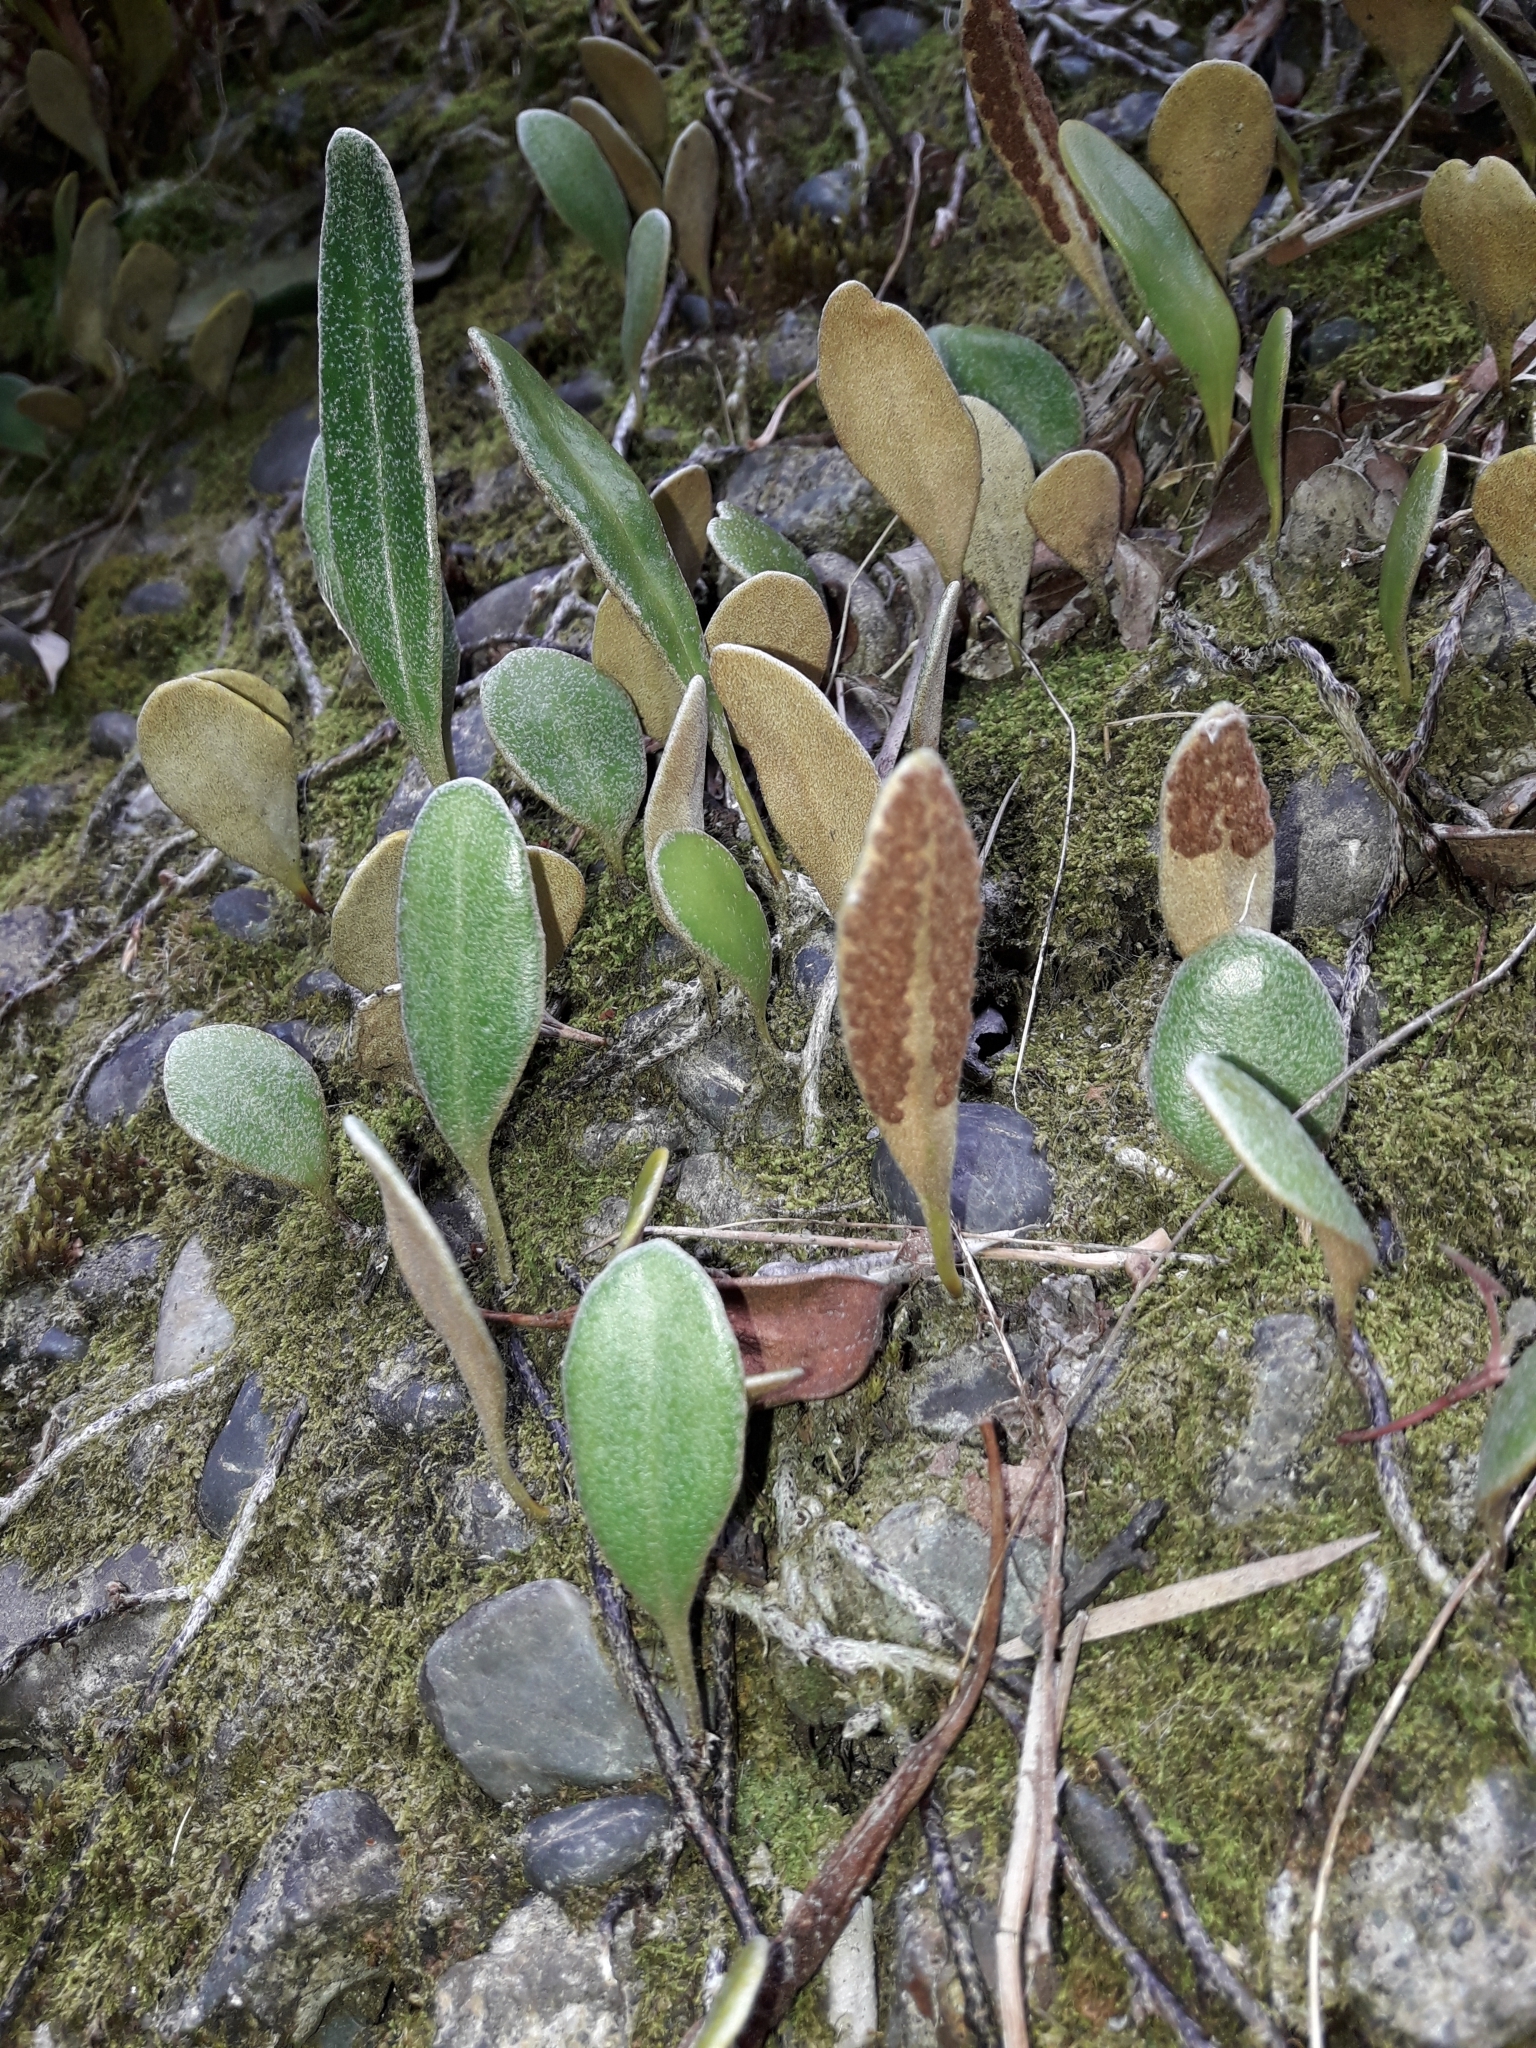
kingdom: Plantae
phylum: Tracheophyta
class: Polypodiopsida
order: Polypodiales
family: Polypodiaceae
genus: Pyrrosia
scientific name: Pyrrosia eleagnifolia
